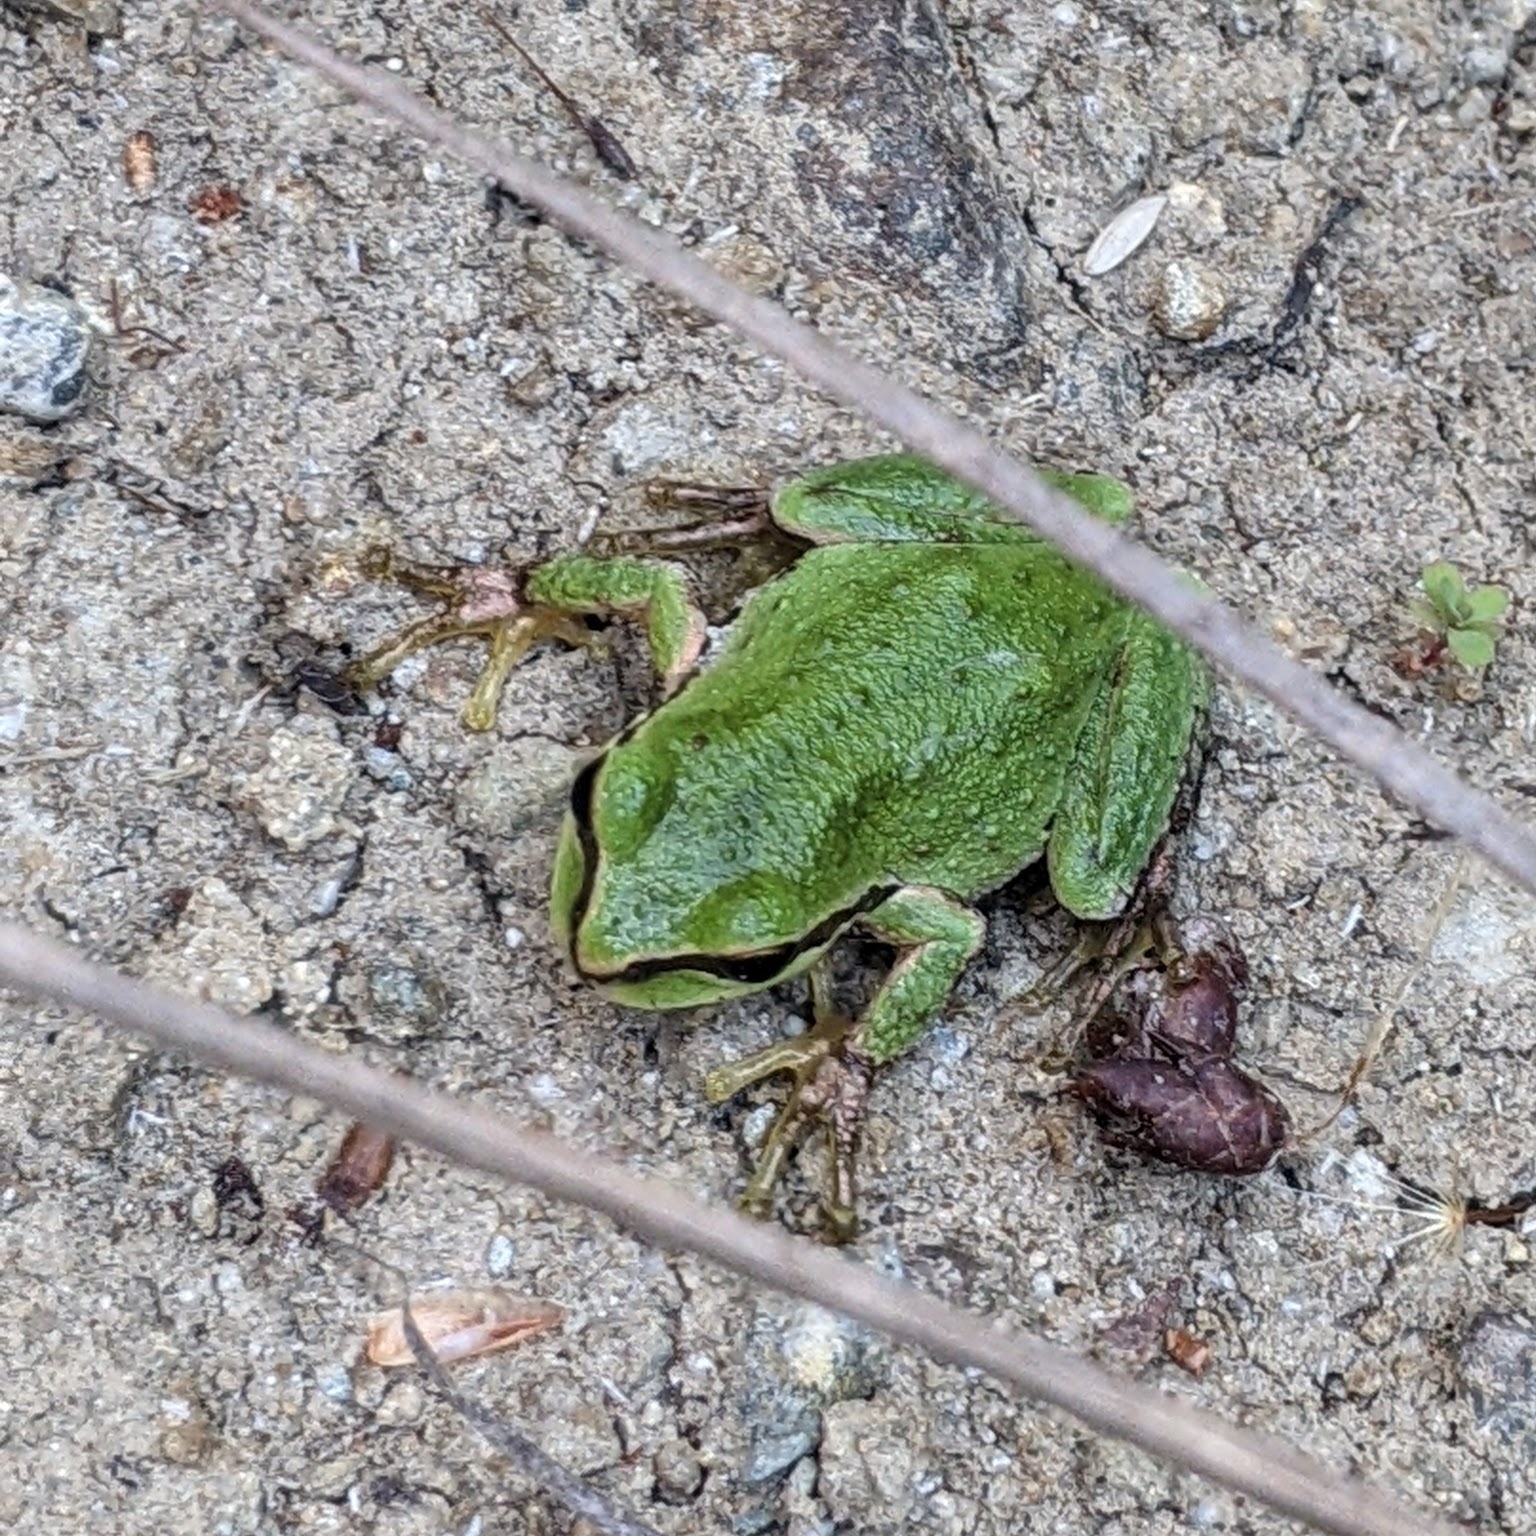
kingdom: Animalia
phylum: Chordata
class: Amphibia
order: Anura
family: Hylidae
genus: Pseudacris
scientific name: Pseudacris regilla
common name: Pacific chorus frog
